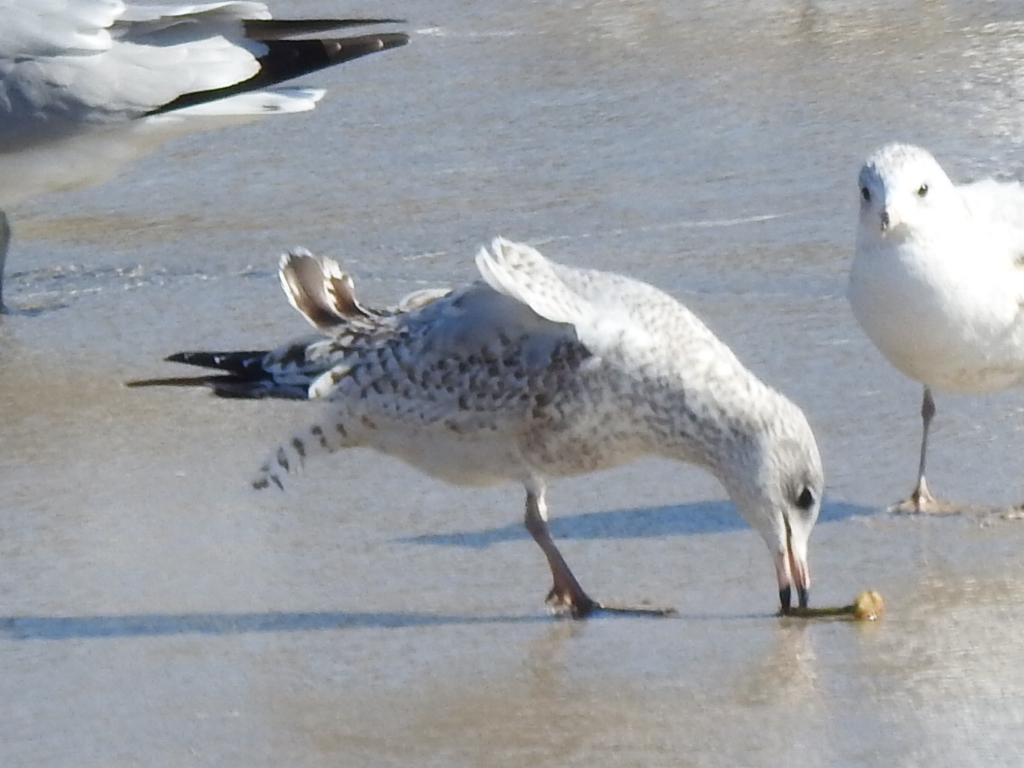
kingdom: Animalia
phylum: Chordata
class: Aves
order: Charadriiformes
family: Laridae
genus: Larus
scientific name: Larus delawarensis
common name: Ring-billed gull
